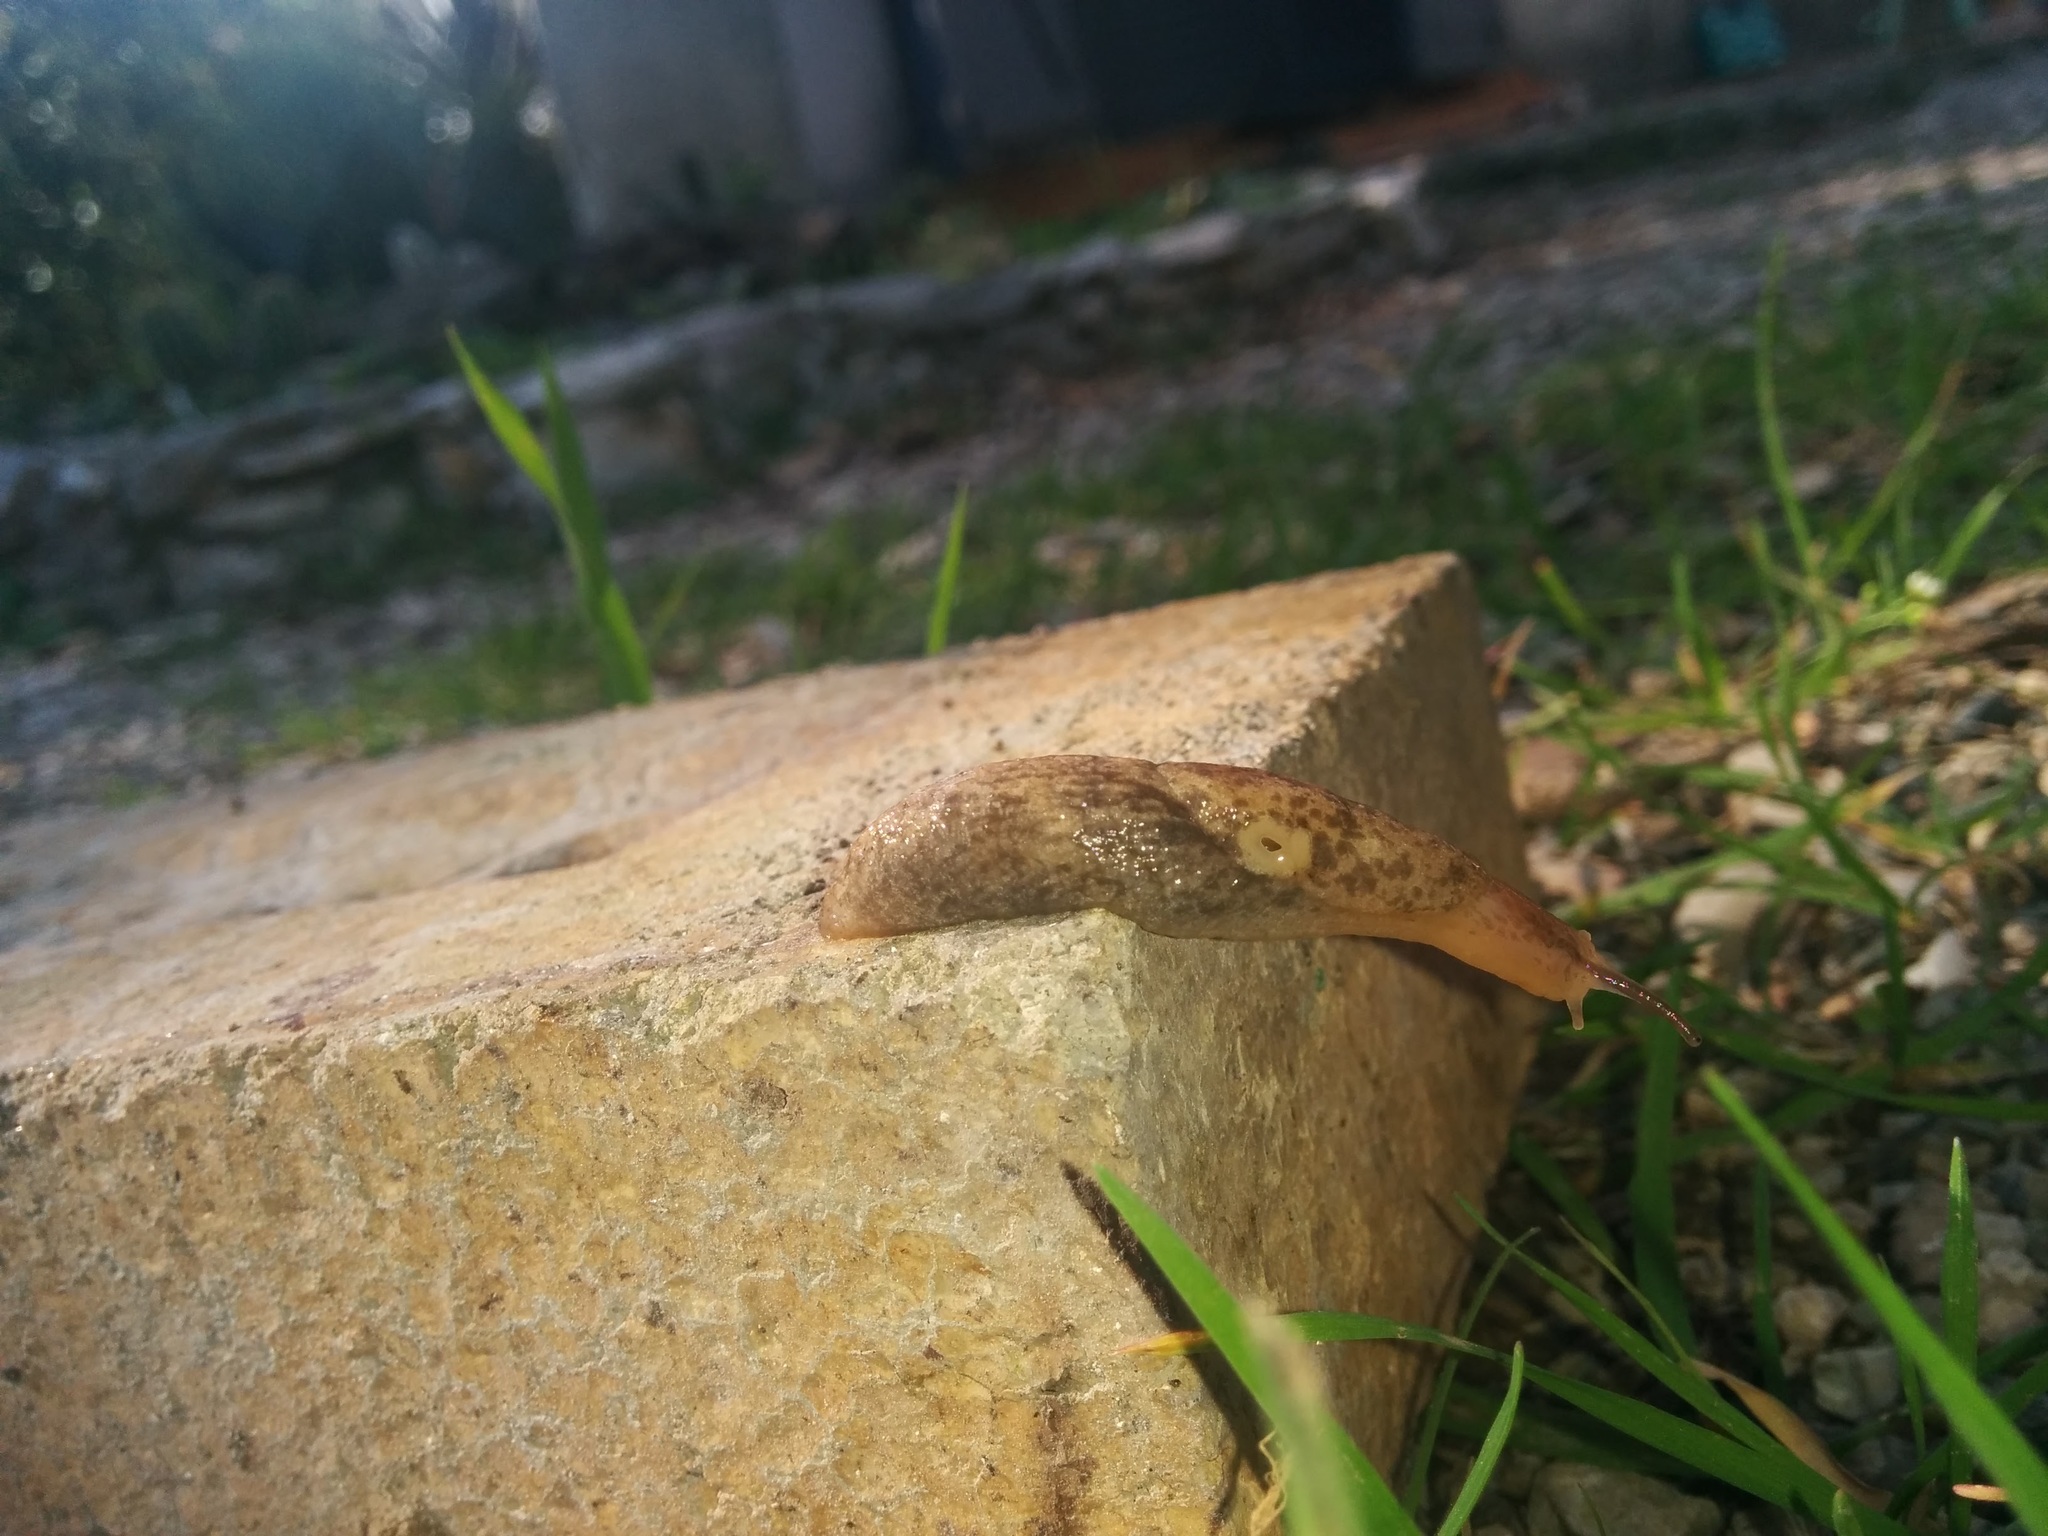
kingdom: Animalia
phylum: Mollusca
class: Gastropoda
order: Stylommatophora
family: Agriolimacidae
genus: Deroceras
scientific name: Deroceras reticulatum
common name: Gray field slug
